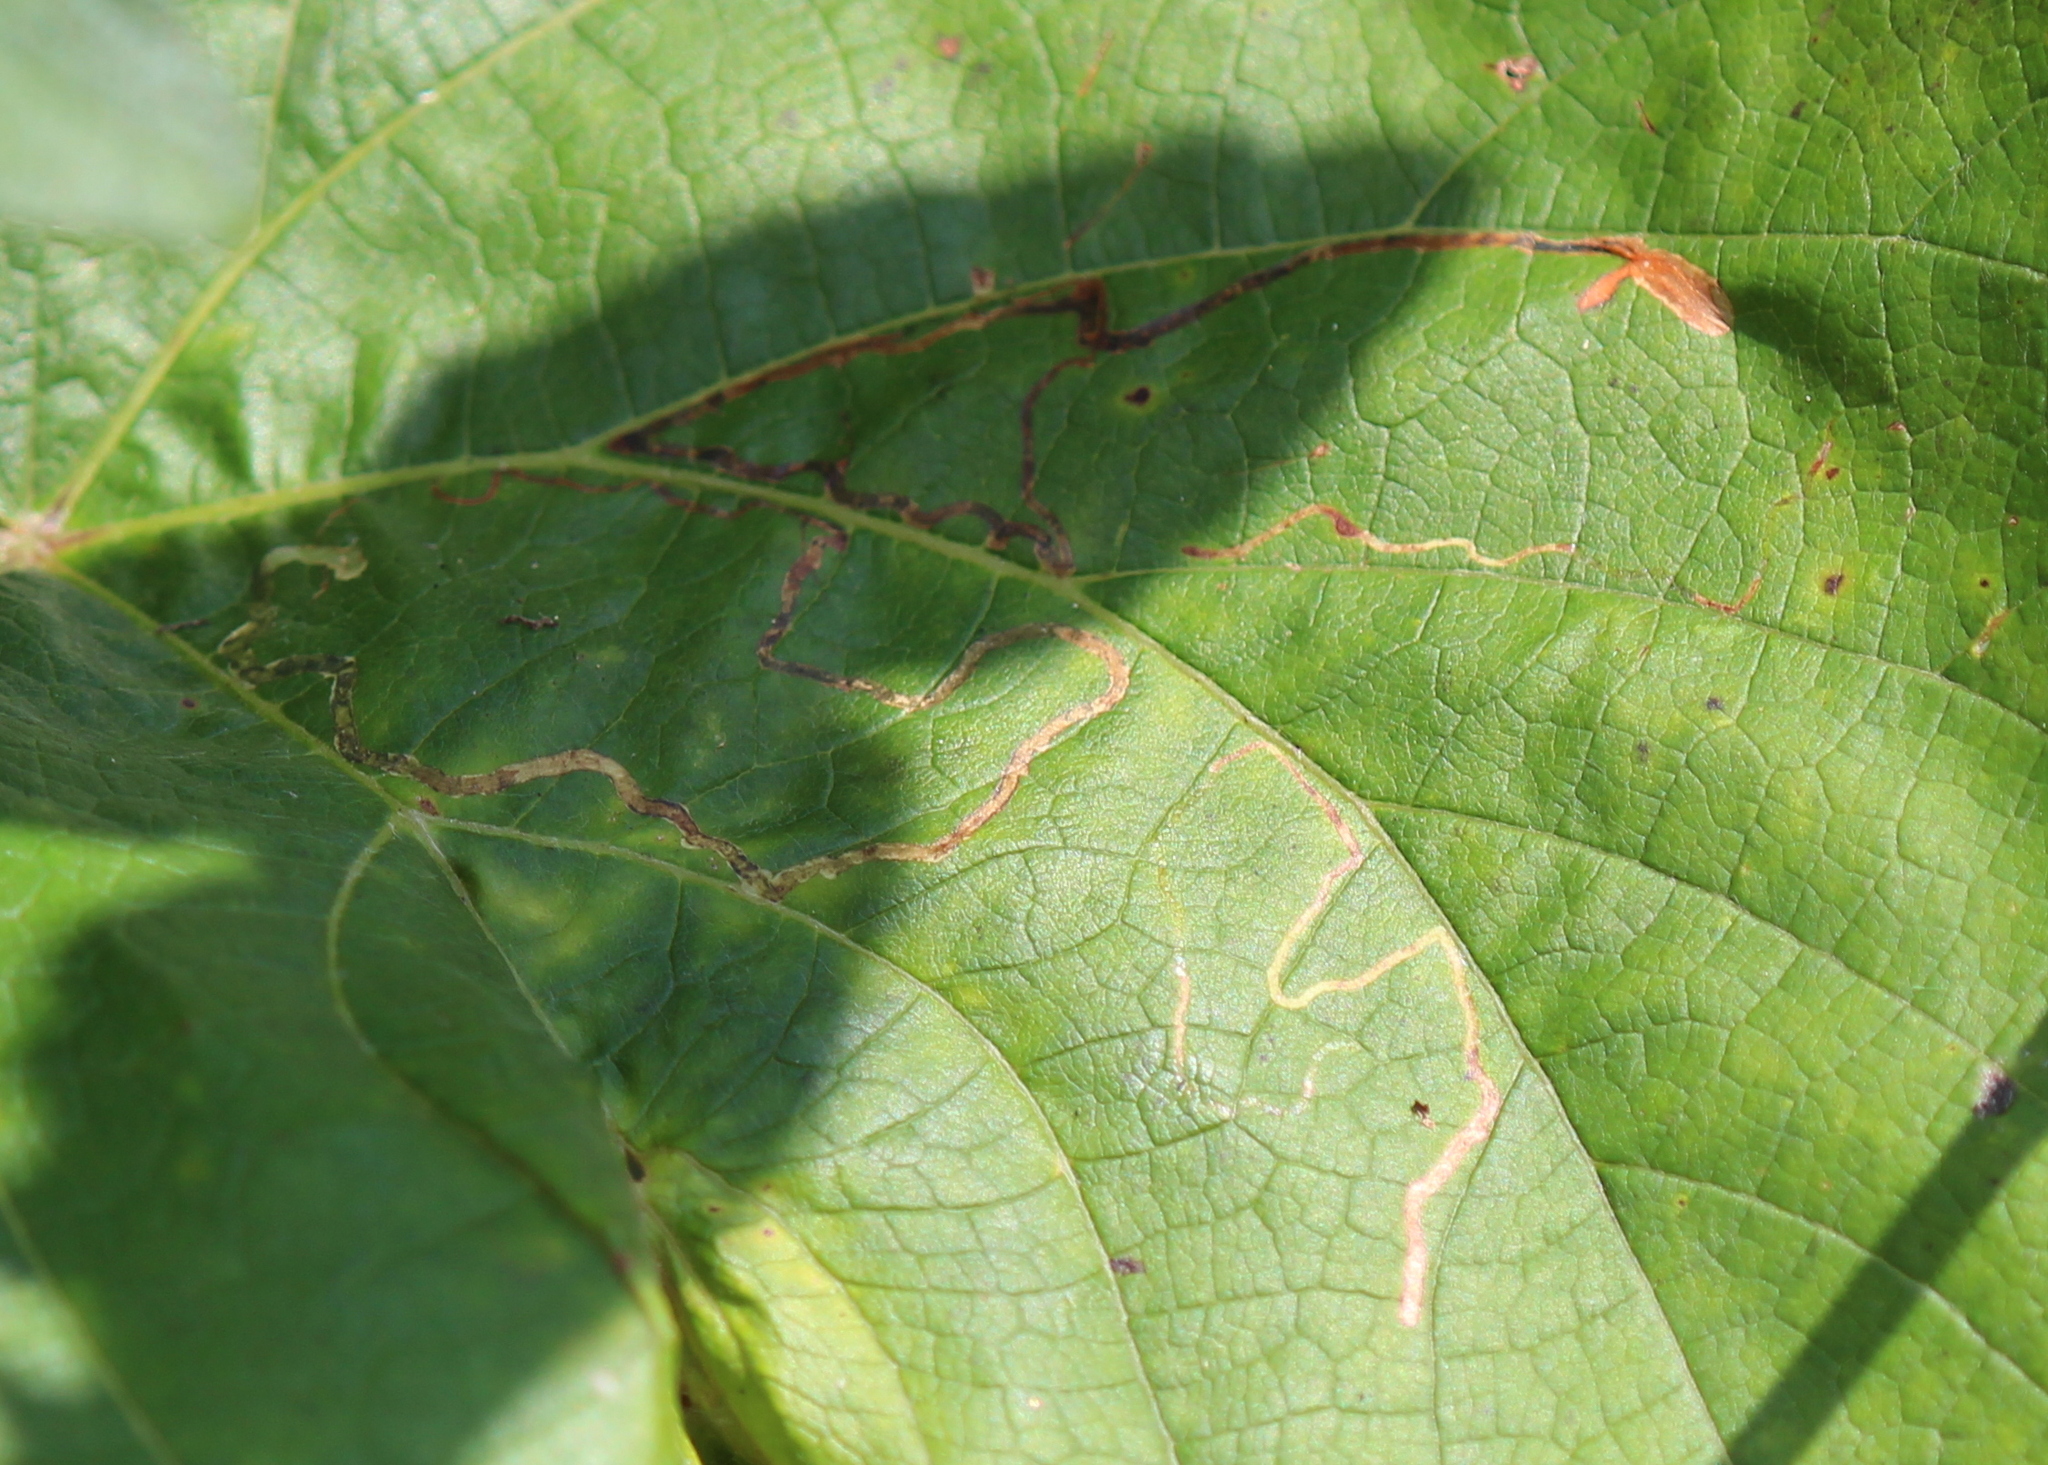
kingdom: Animalia
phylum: Arthropoda
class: Insecta
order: Lepidoptera
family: Gracillariidae
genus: Phyllocnistis
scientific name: Phyllocnistis vitifoliella
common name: Grape leaf-miner moth
